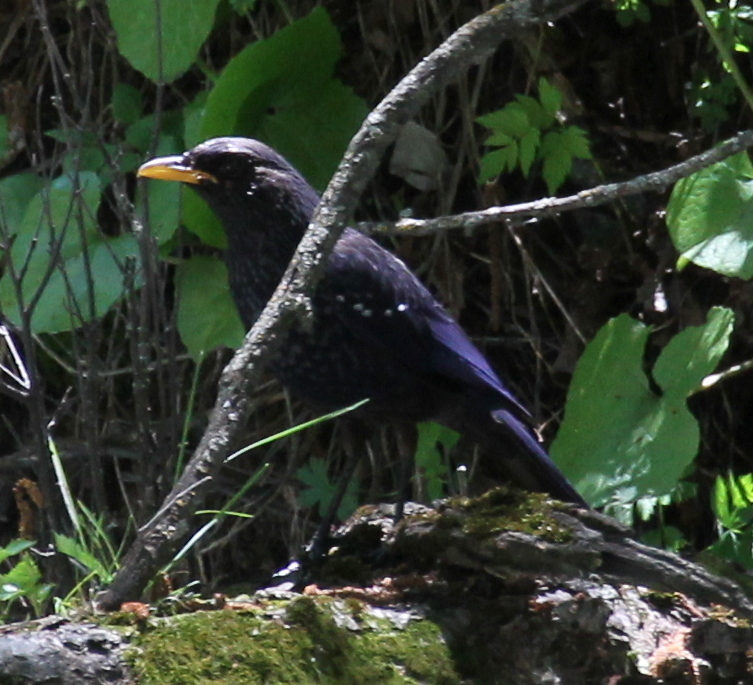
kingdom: Animalia
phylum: Chordata
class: Aves
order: Passeriformes
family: Muscicapidae
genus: Myophonus
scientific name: Myophonus caeruleus
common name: Blue whistling-thrush
